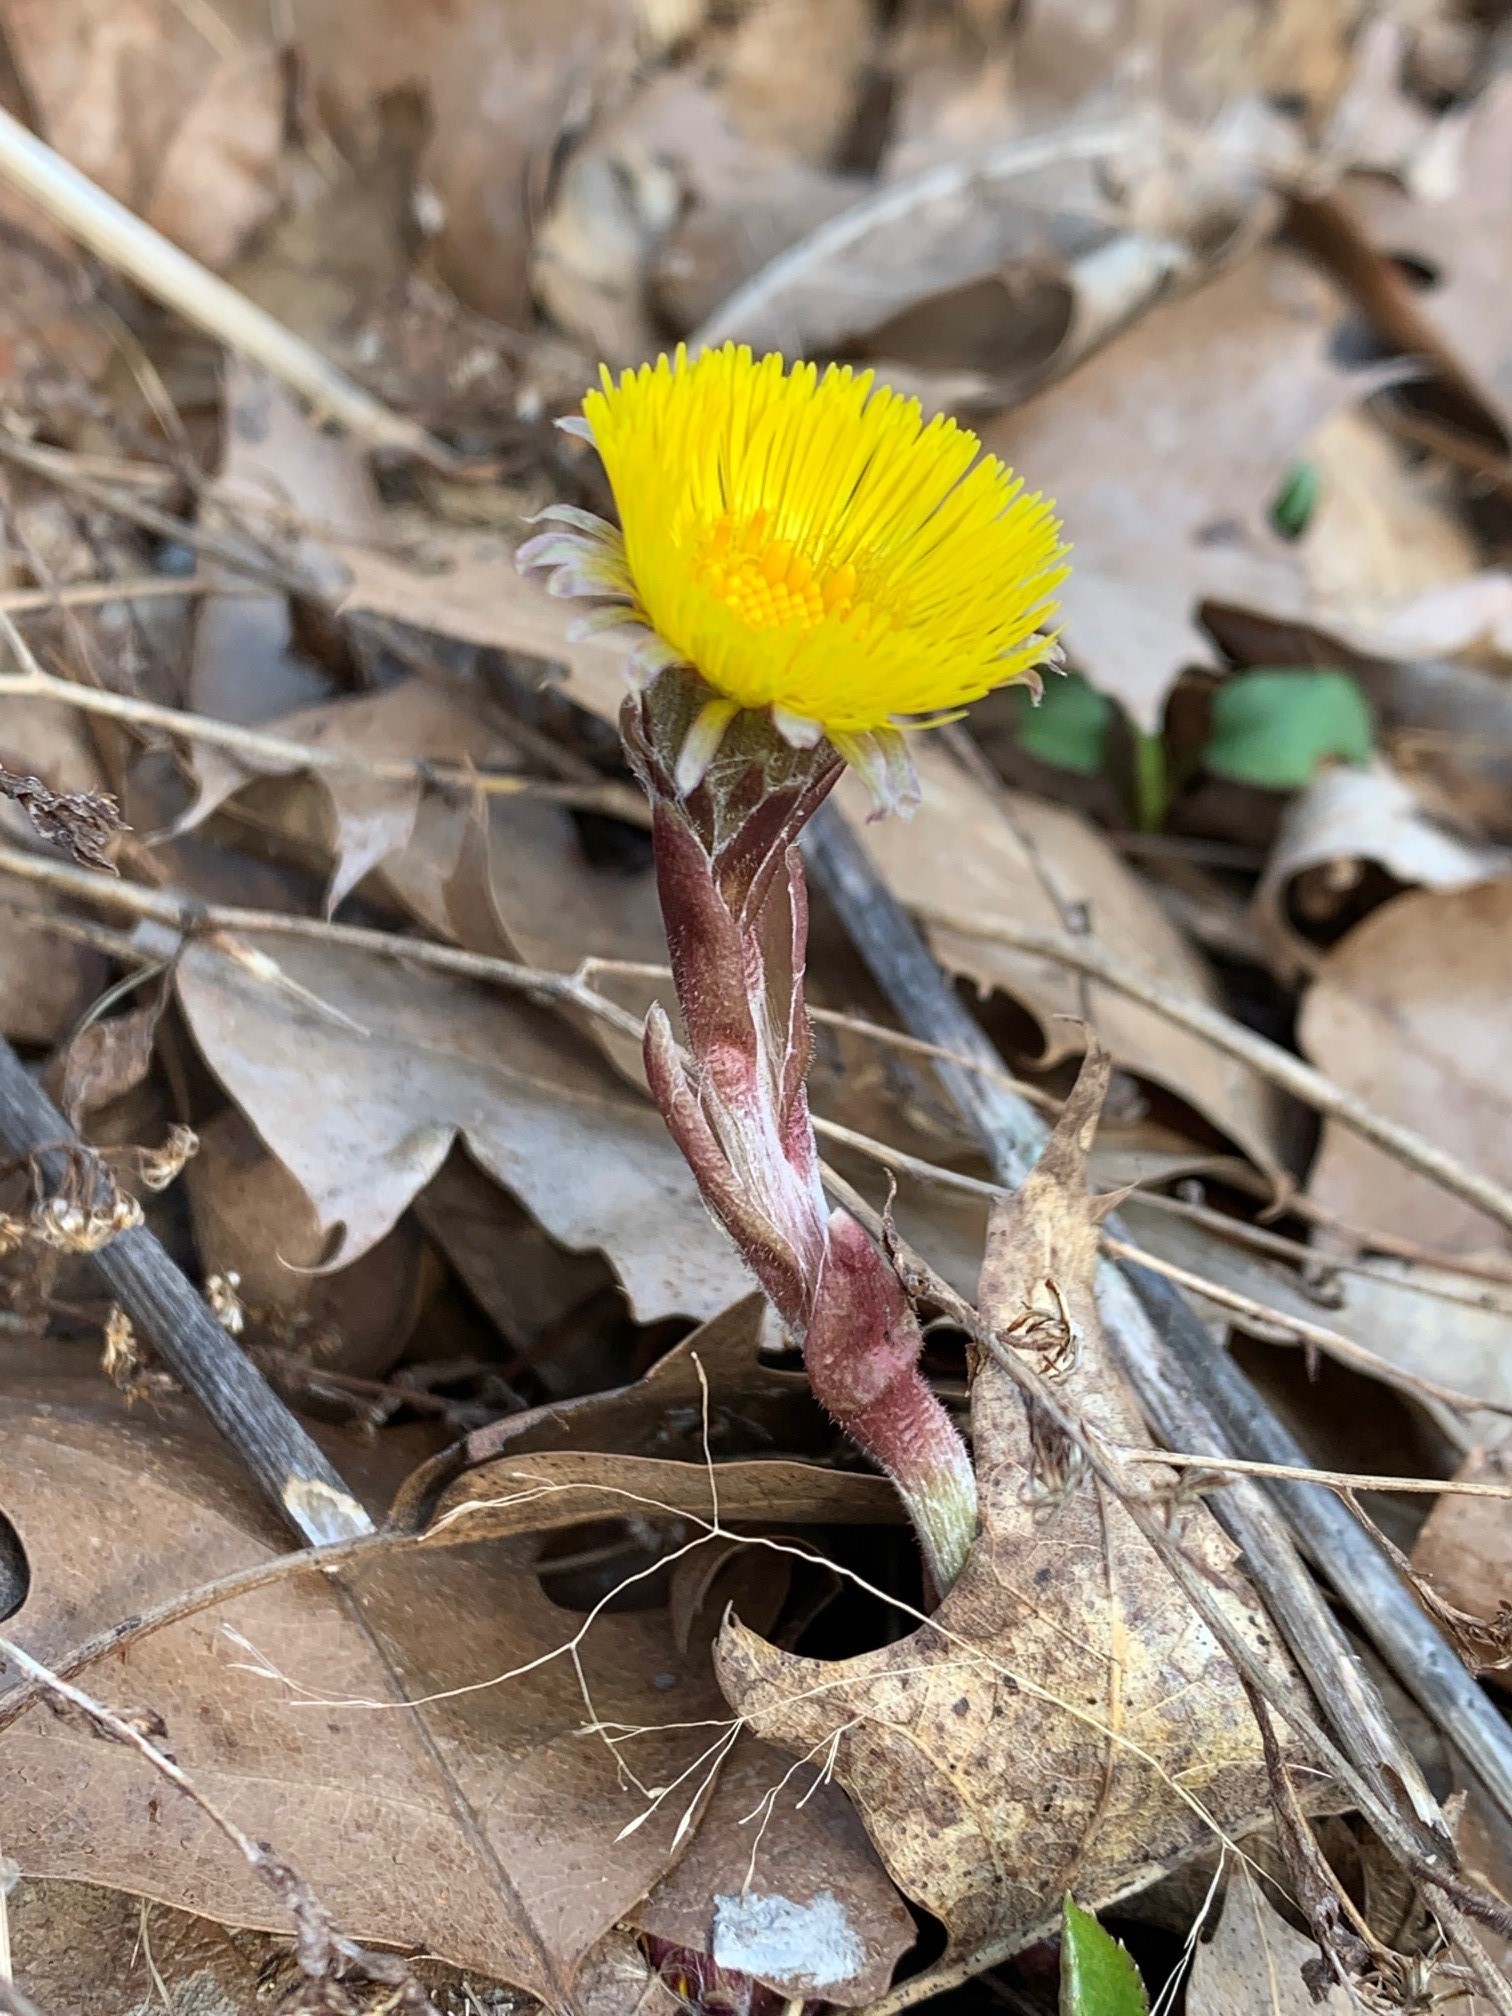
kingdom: Plantae
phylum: Tracheophyta
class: Magnoliopsida
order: Asterales
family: Asteraceae
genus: Tussilago
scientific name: Tussilago farfara
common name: Coltsfoot
